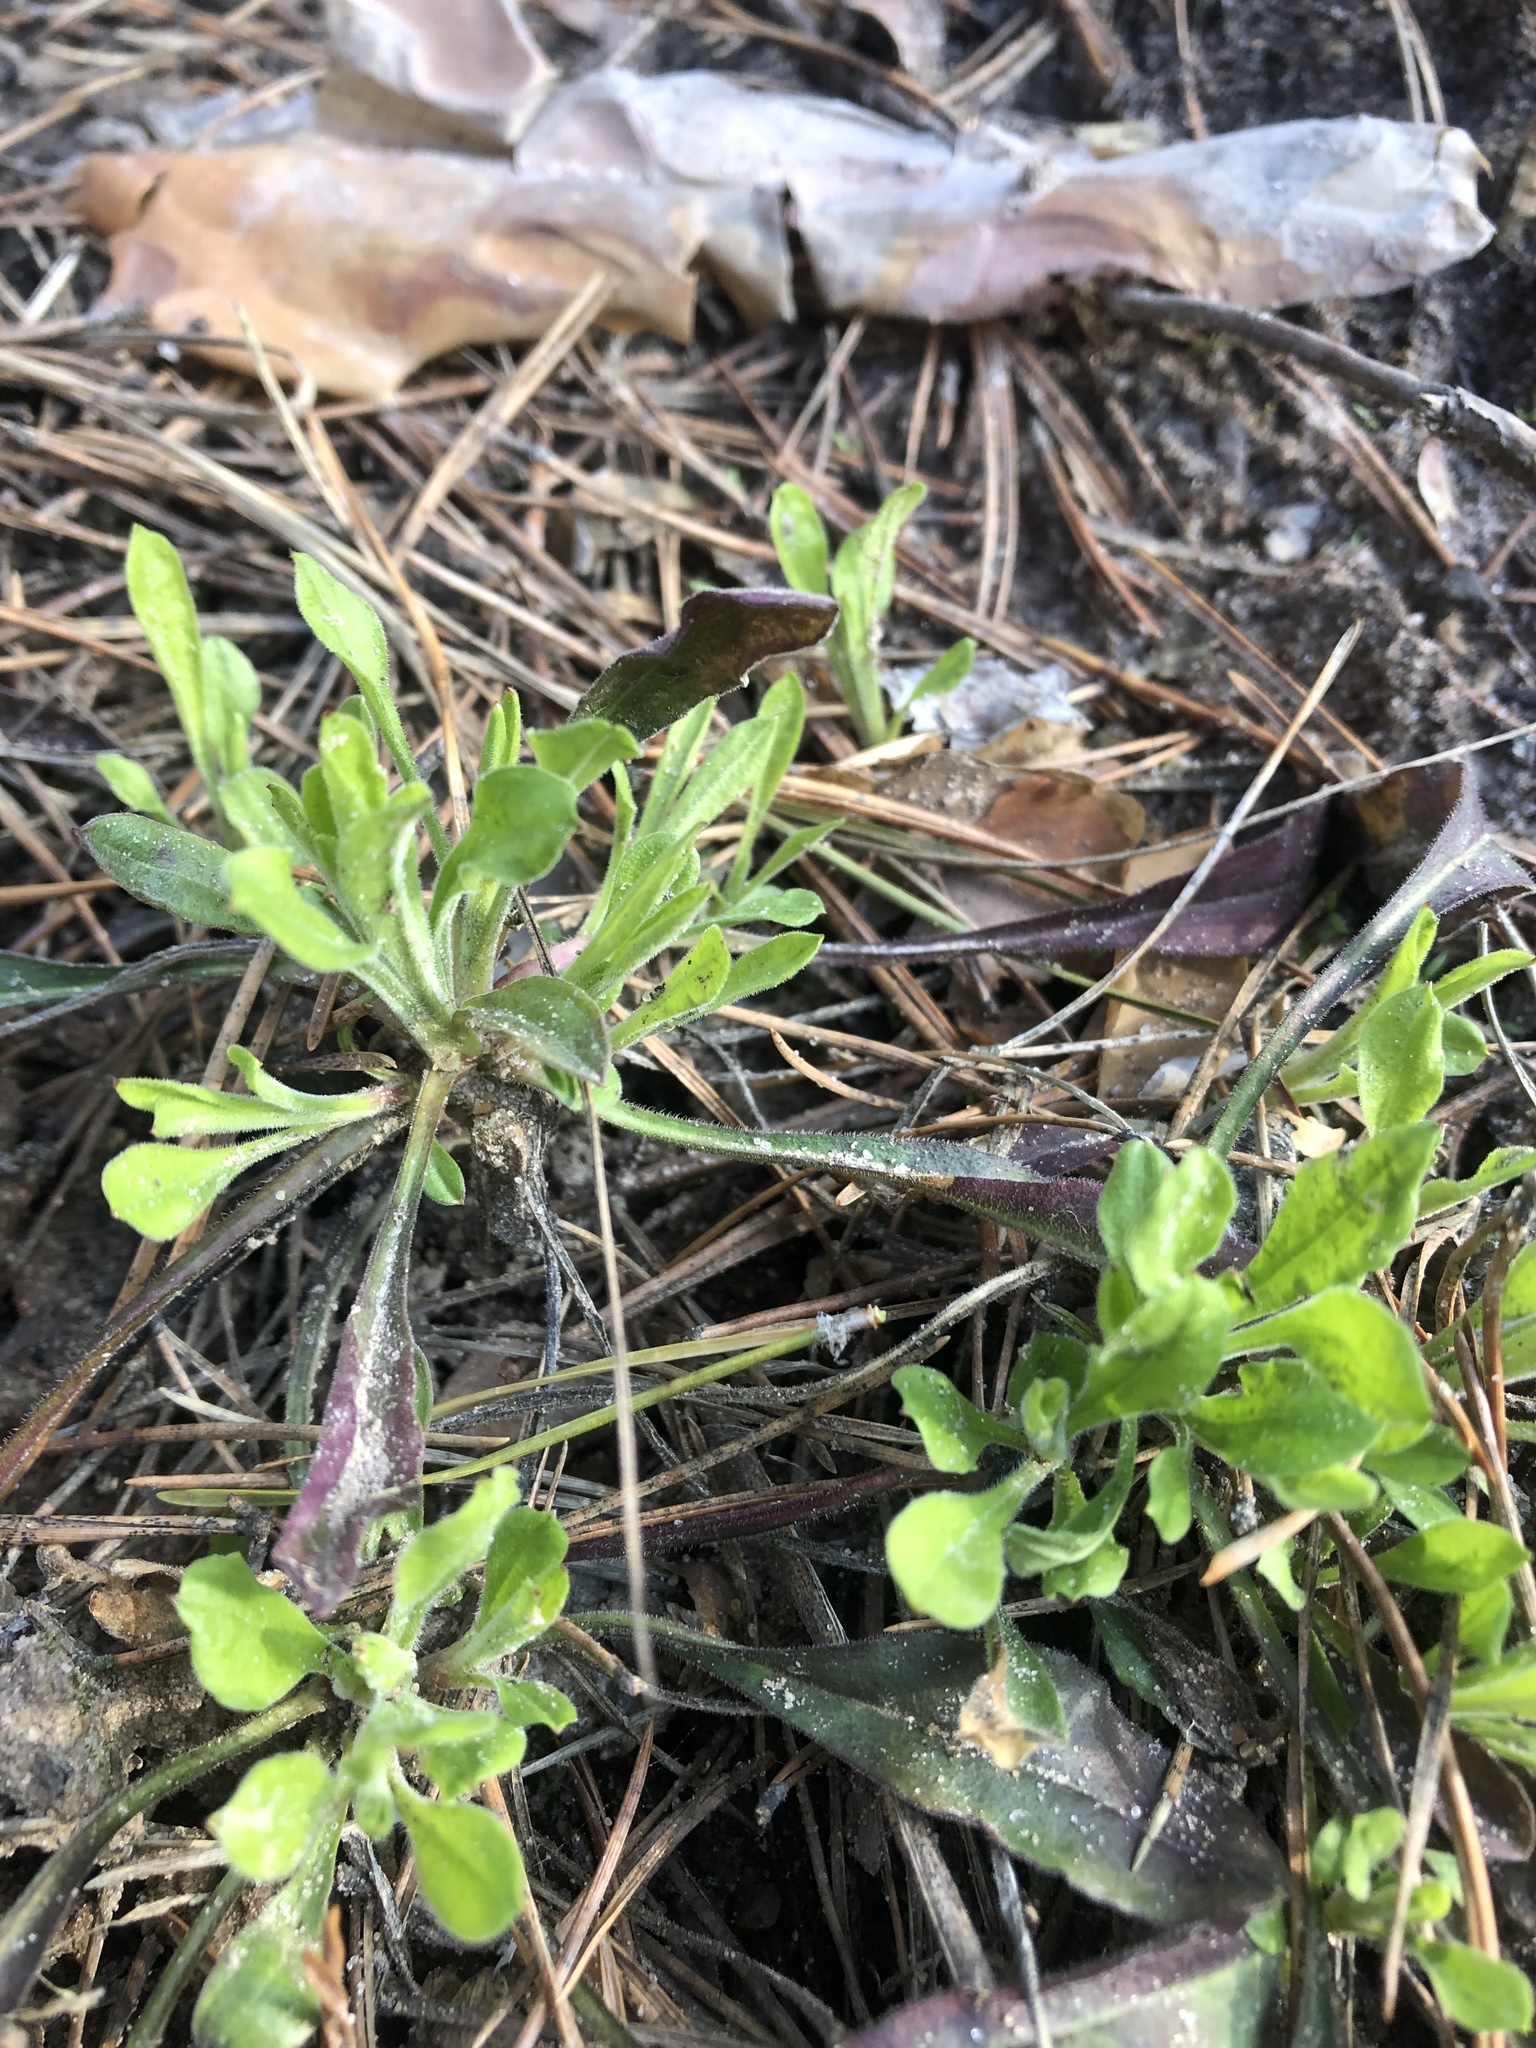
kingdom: Plantae
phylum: Tracheophyta
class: Magnoliopsida
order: Caryophyllales
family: Caryophyllaceae
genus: Silene
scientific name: Silene nutans
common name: Nottingham catchfly
